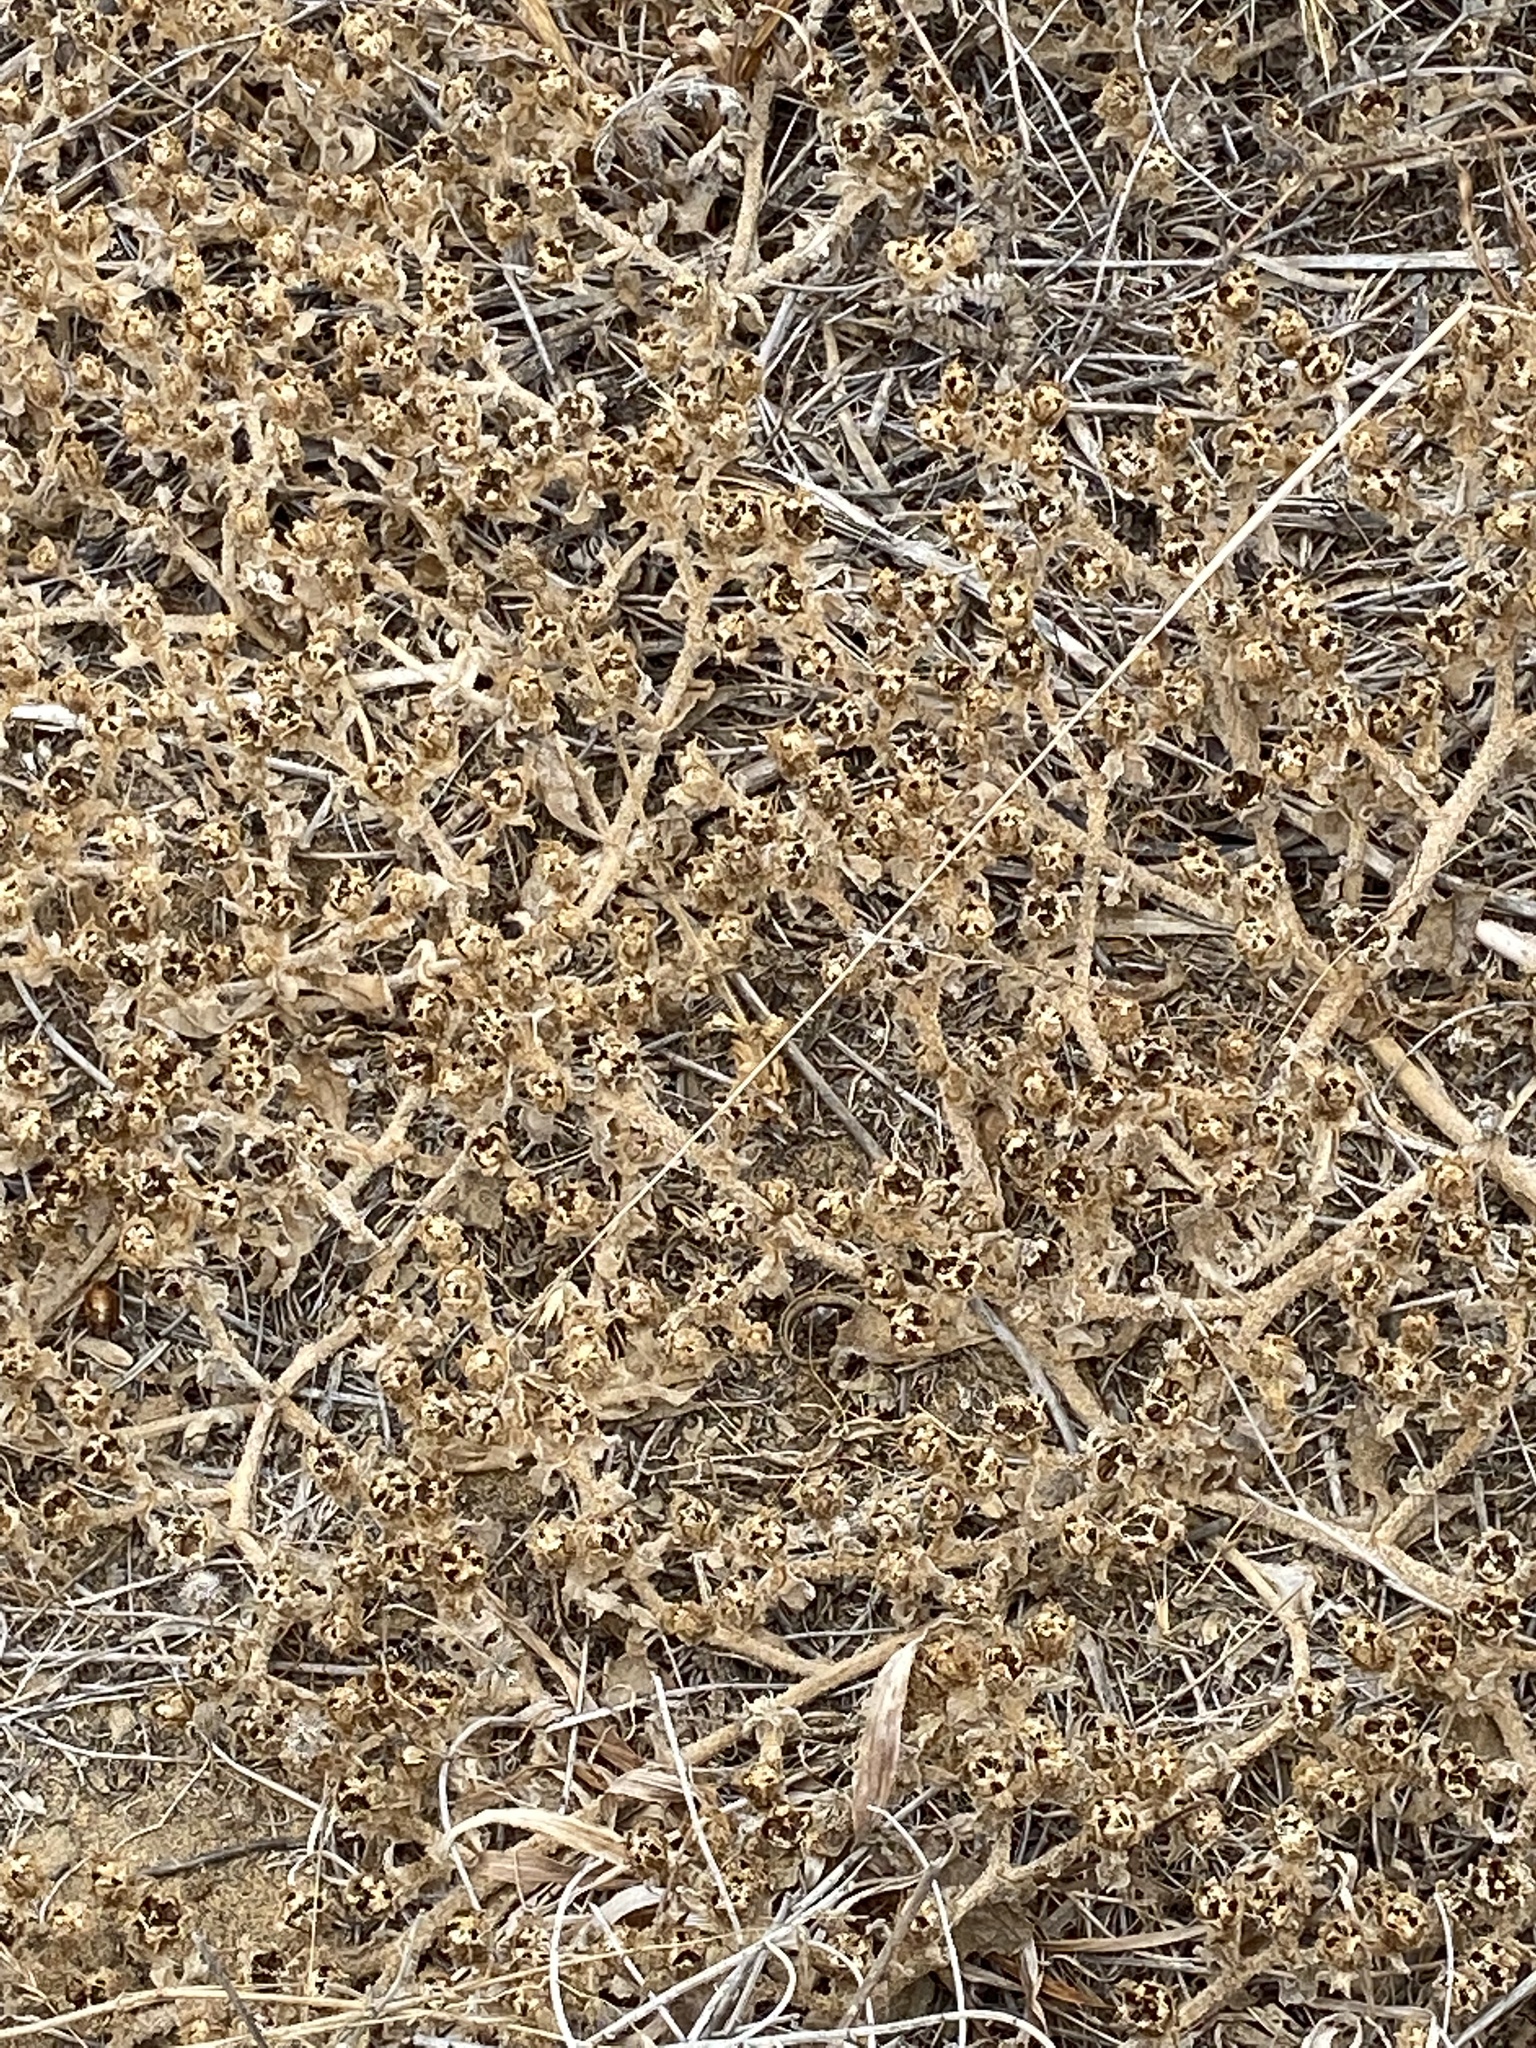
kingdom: Plantae
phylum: Tracheophyta
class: Magnoliopsida
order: Caryophyllales
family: Aizoaceae
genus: Mesembryanthemum
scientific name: Mesembryanthemum crystallinum
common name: Common iceplant
